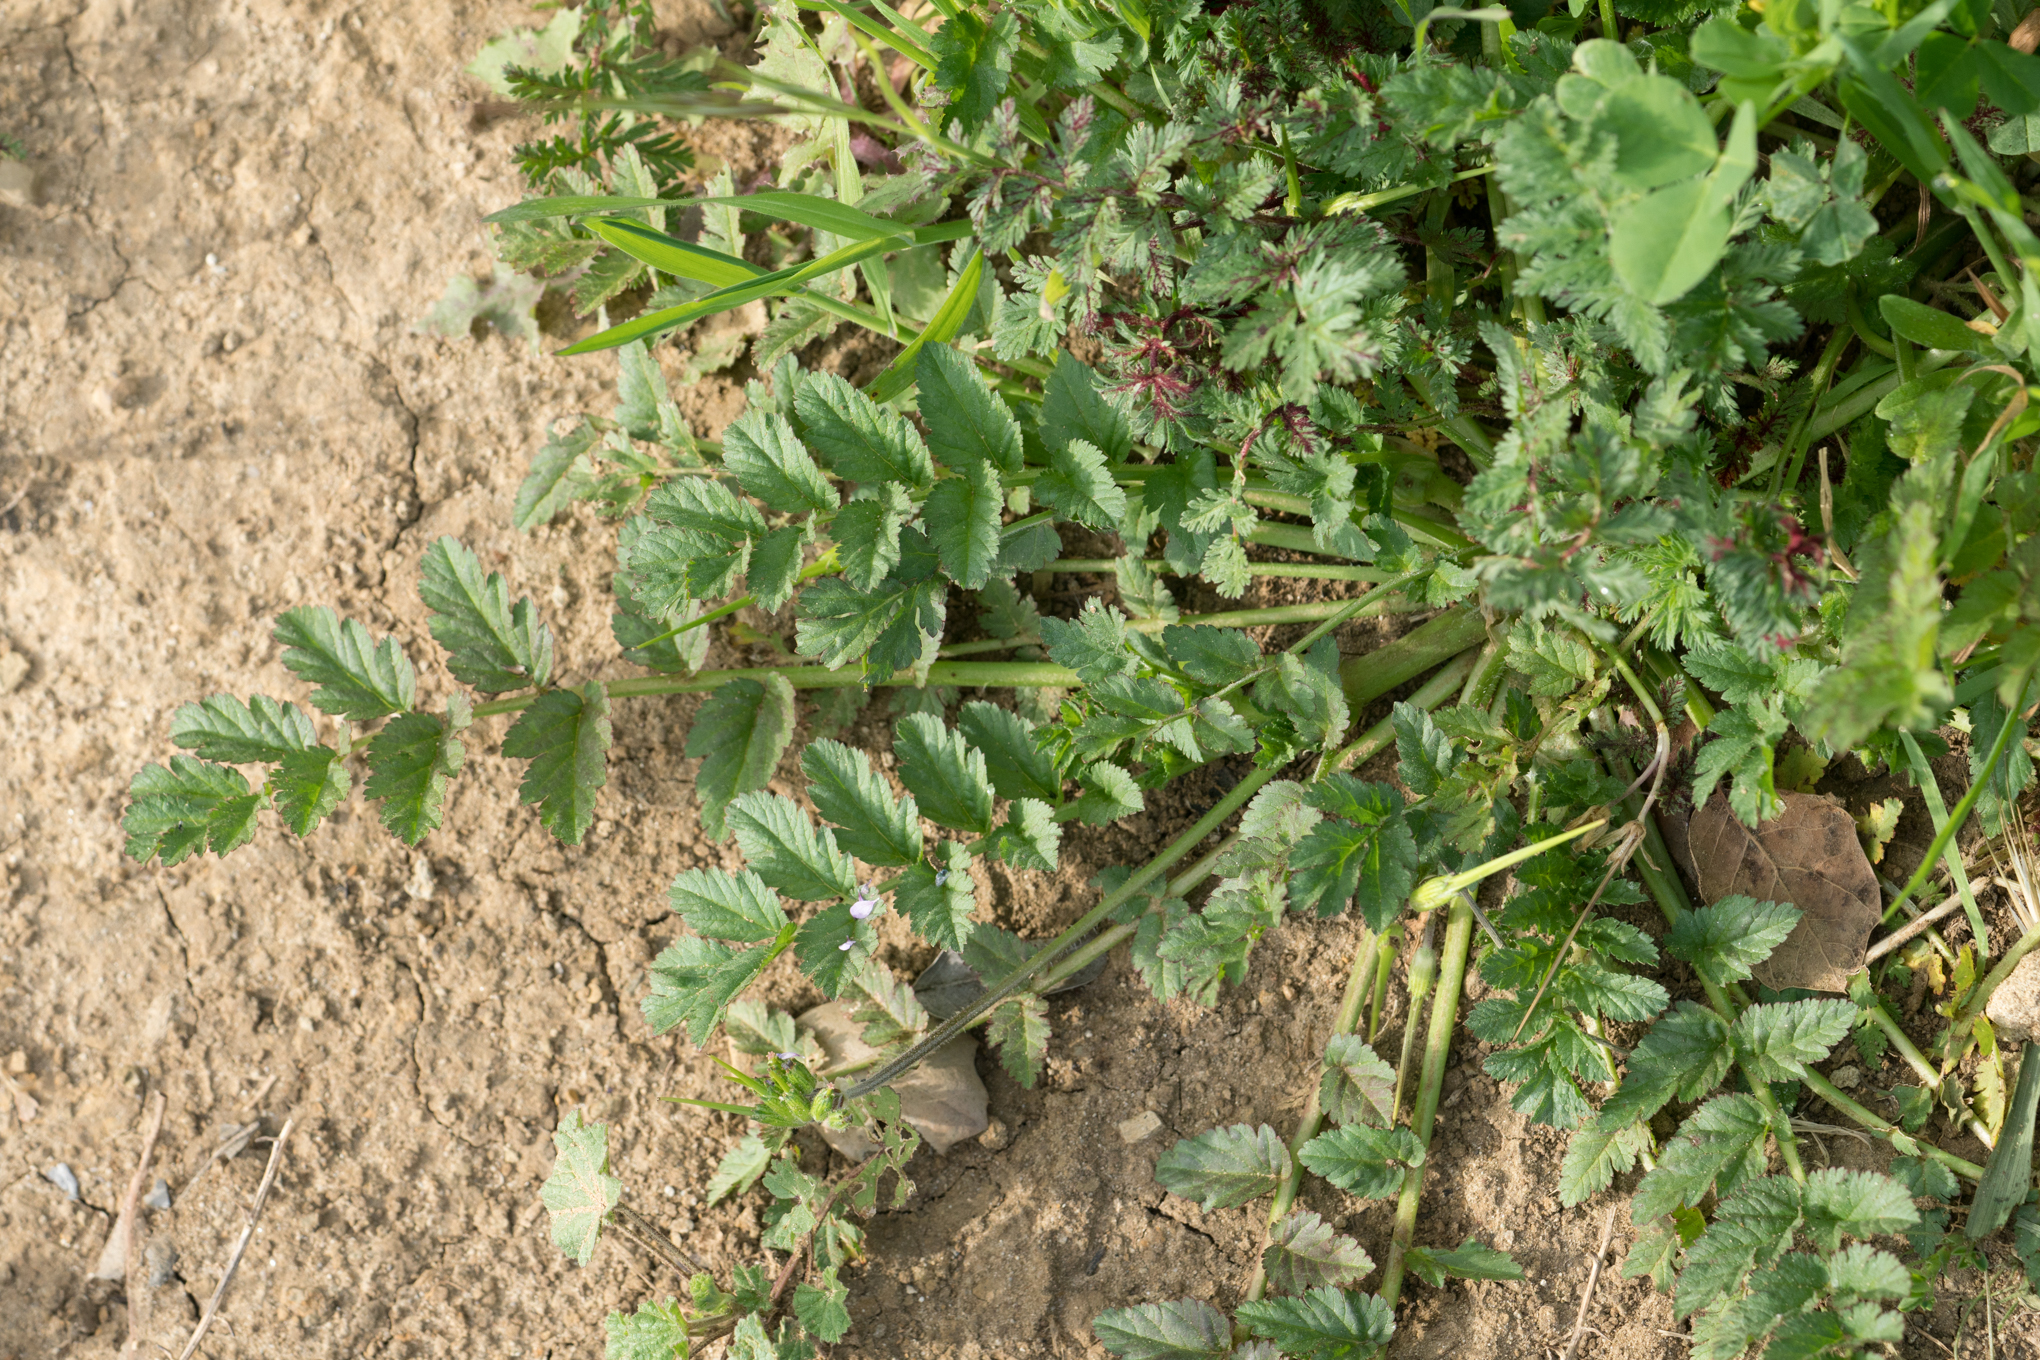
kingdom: Plantae
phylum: Tracheophyta
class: Magnoliopsida
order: Geraniales
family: Geraniaceae
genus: Erodium
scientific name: Erodium moschatum
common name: Musk stork's-bill
